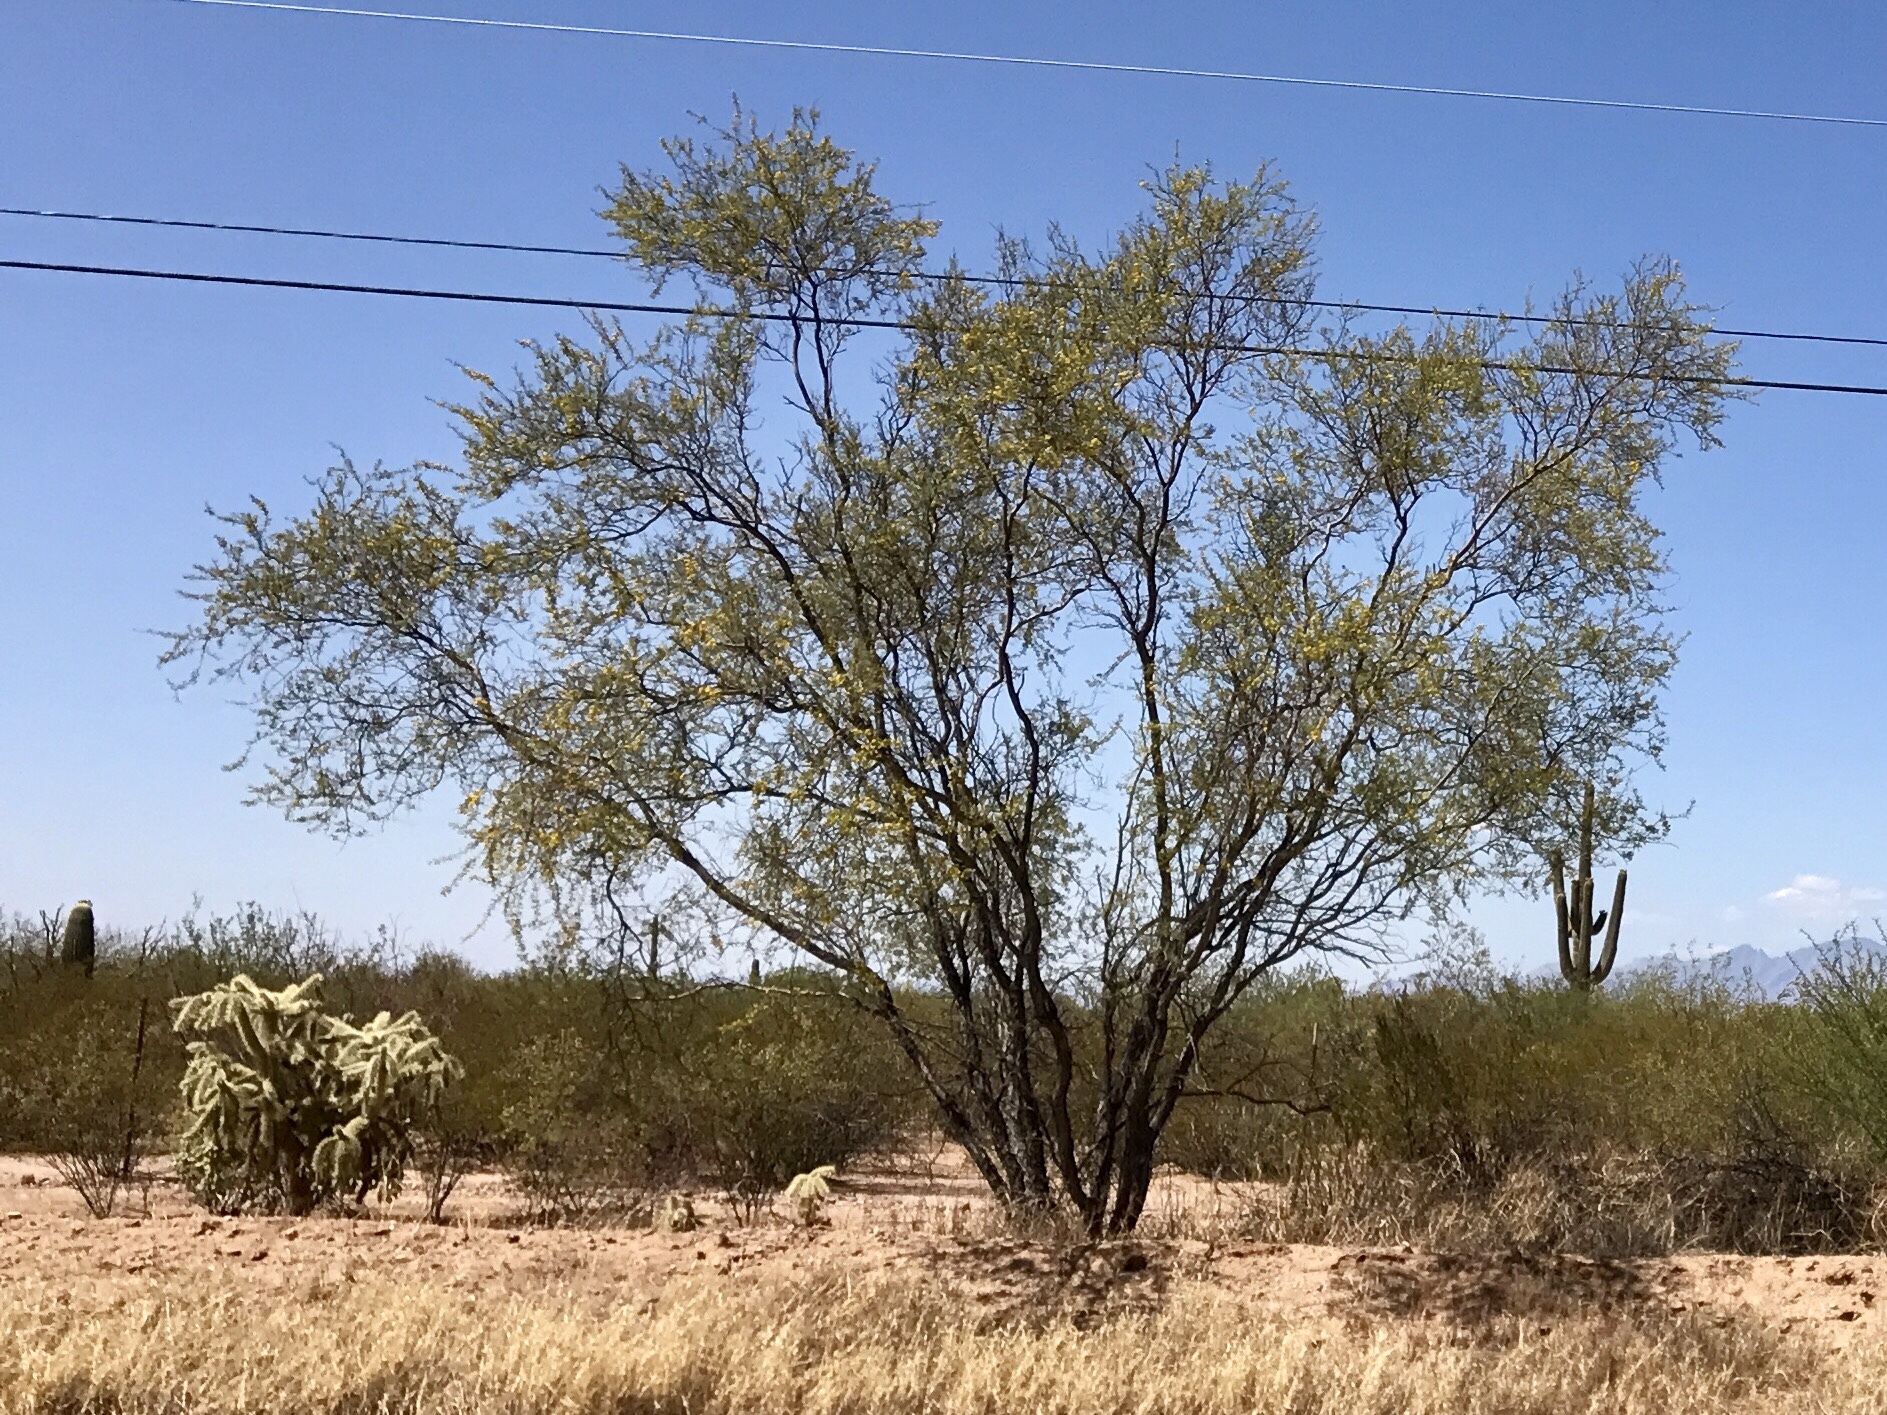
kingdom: Plantae
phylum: Tracheophyta
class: Magnoliopsida
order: Fabales
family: Fabaceae
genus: Prosopis
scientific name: Prosopis velutina
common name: Velvet mesquite
